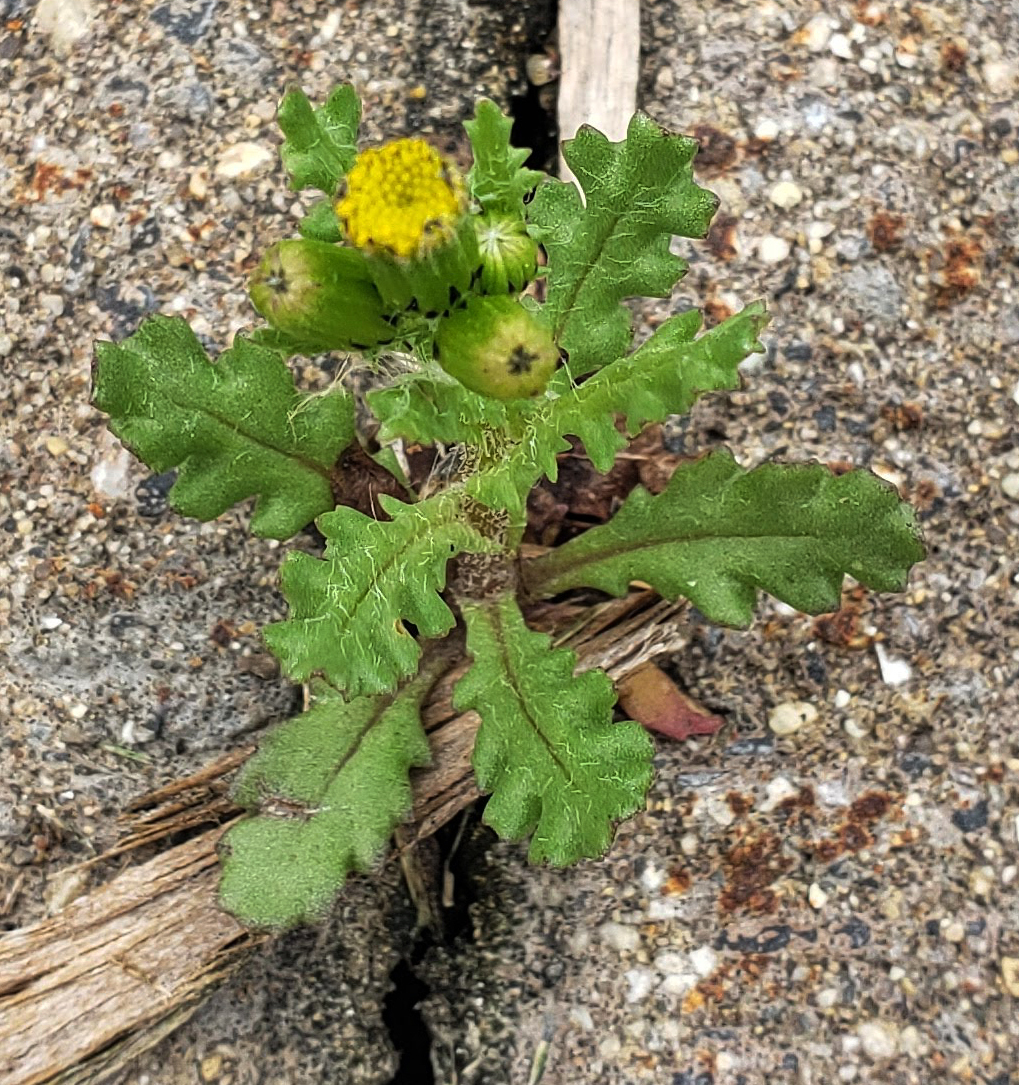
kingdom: Plantae
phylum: Tracheophyta
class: Magnoliopsida
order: Asterales
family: Asteraceae
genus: Senecio
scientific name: Senecio vulgaris
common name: Old-man-in-the-spring
